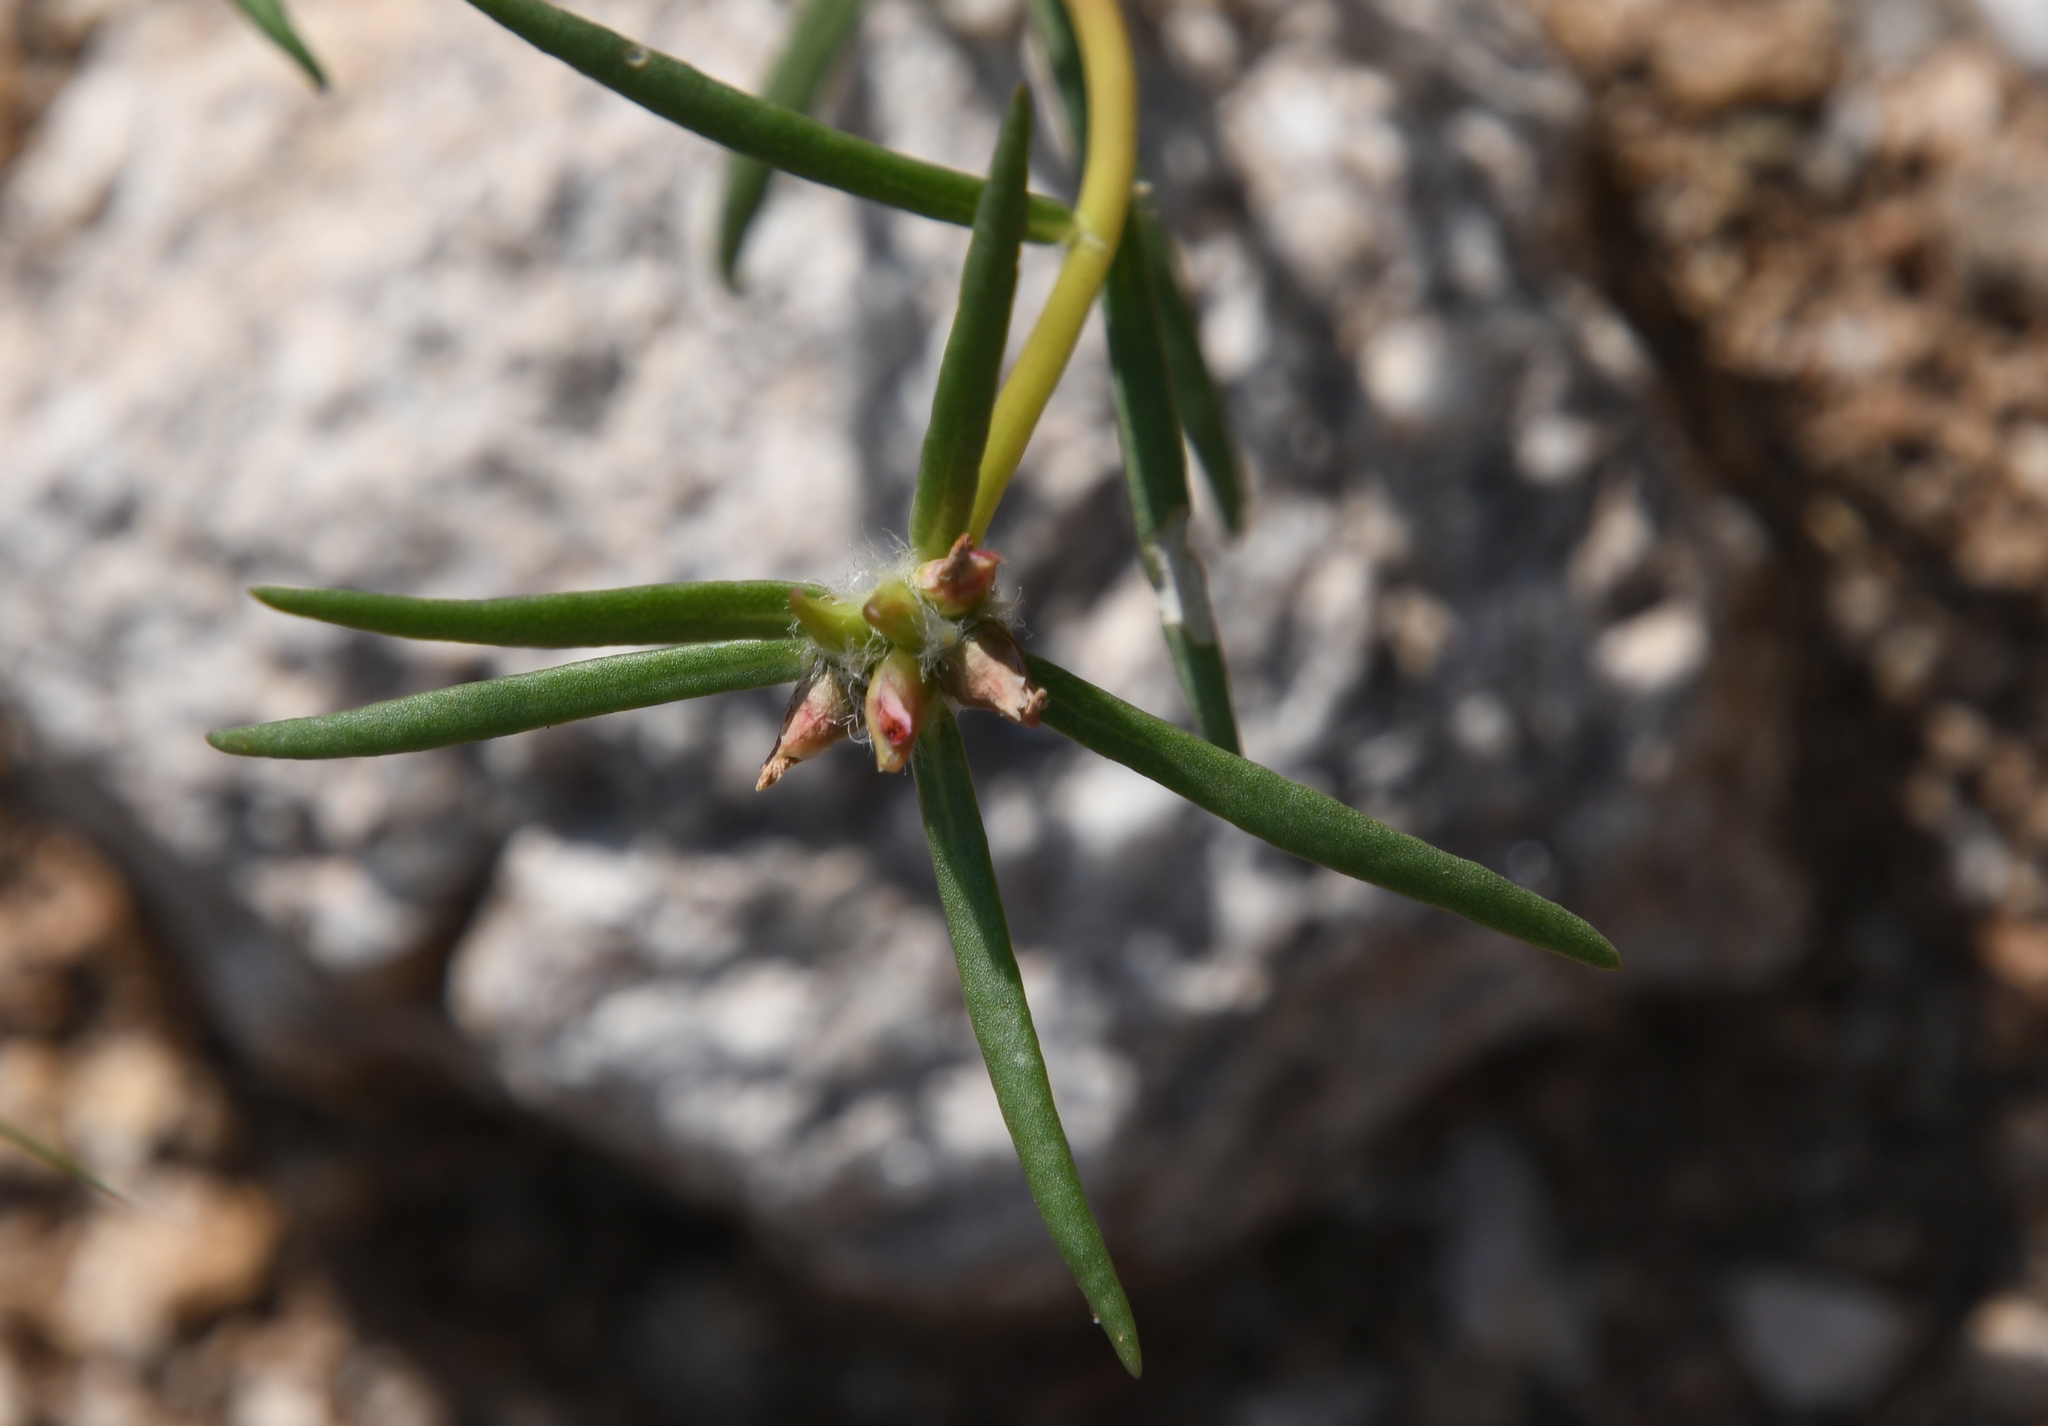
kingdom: Plantae
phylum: Tracheophyta
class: Magnoliopsida
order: Caryophyllales
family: Portulacaceae
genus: Portulaca
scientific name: Portulaca suffrutescens
